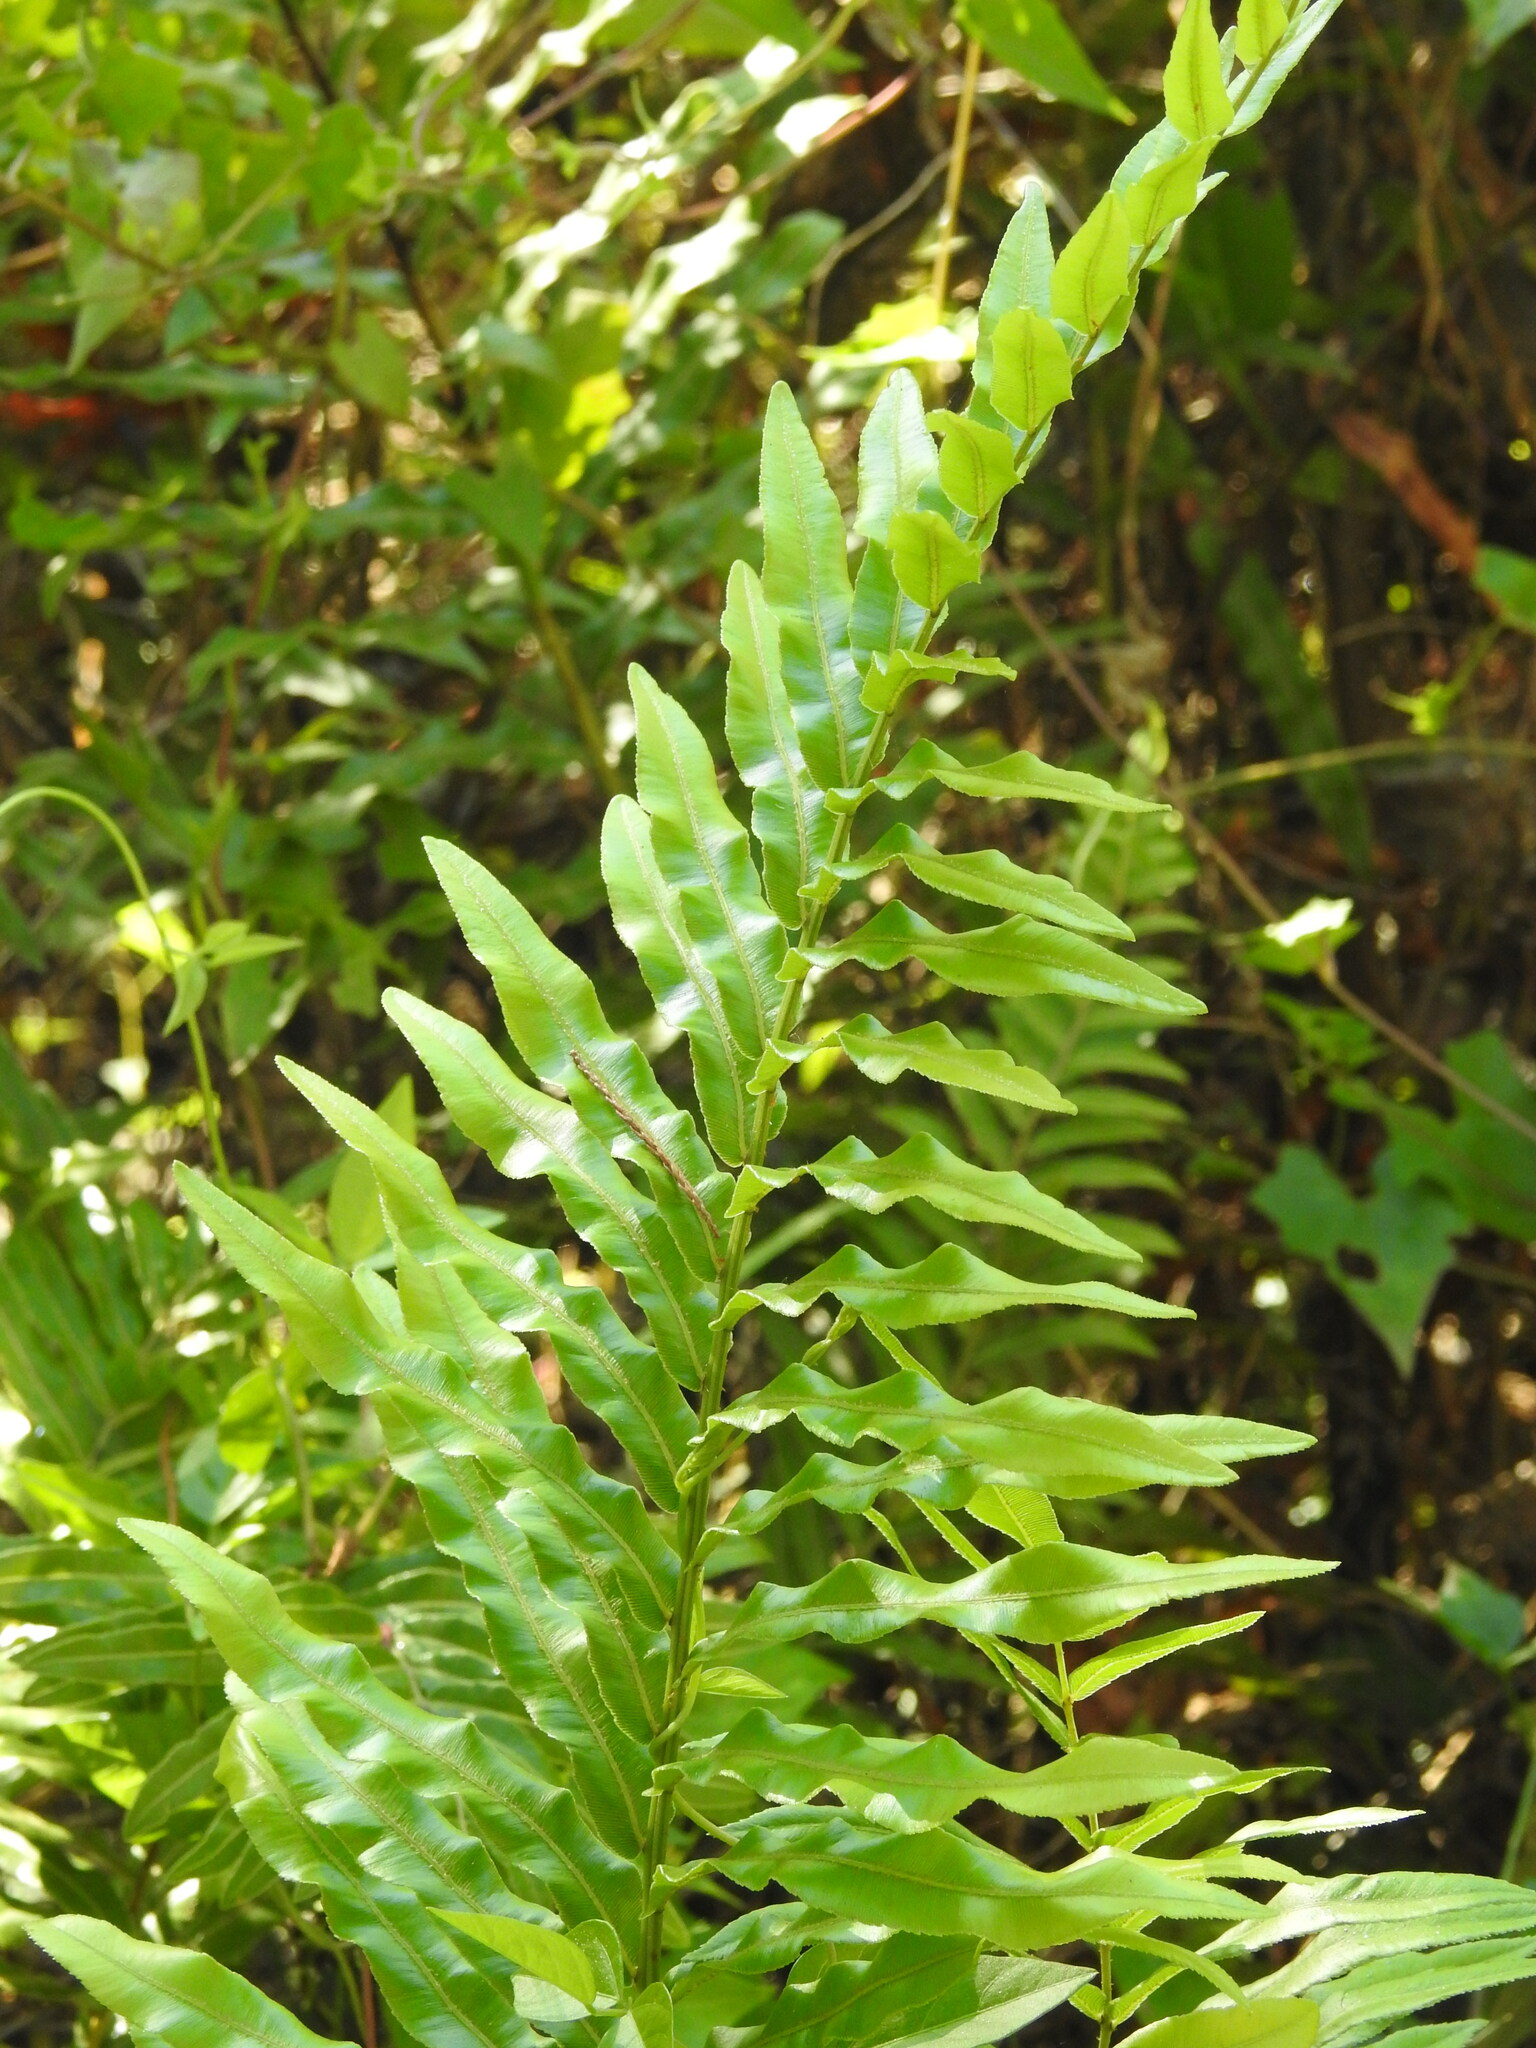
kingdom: Plantae
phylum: Tracheophyta
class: Polypodiopsida
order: Polypodiales
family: Blechnaceae
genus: Telmatoblechnum
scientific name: Telmatoblechnum serrulatum
